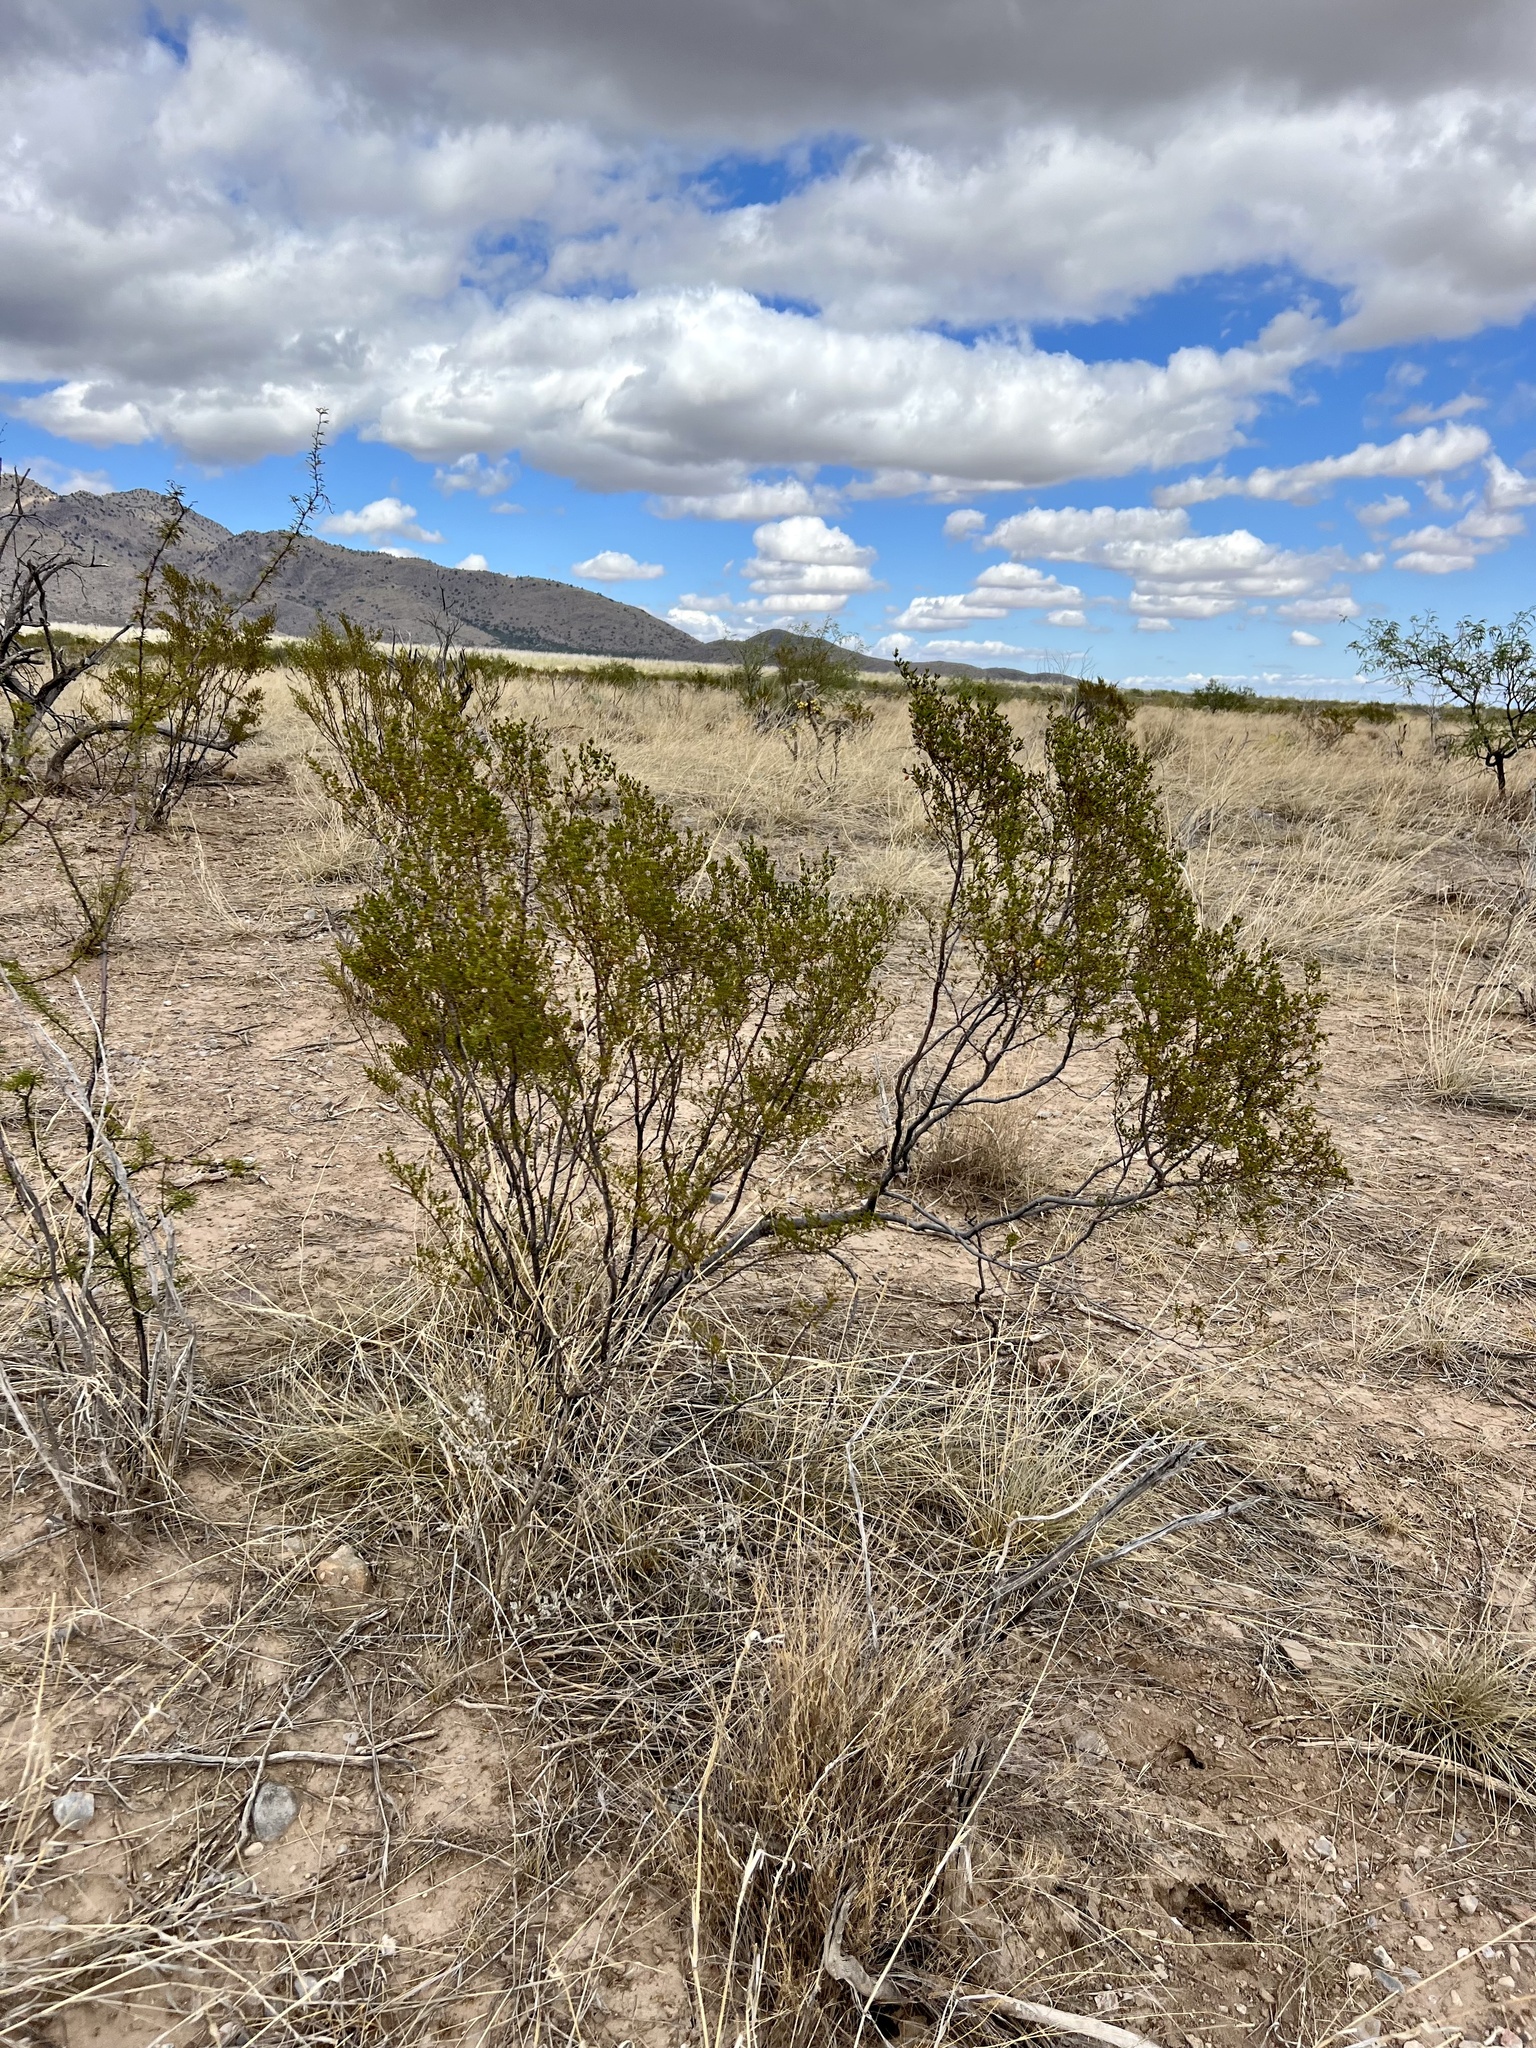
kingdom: Plantae
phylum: Tracheophyta
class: Magnoliopsida
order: Zygophyllales
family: Zygophyllaceae
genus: Larrea
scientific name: Larrea tridentata
